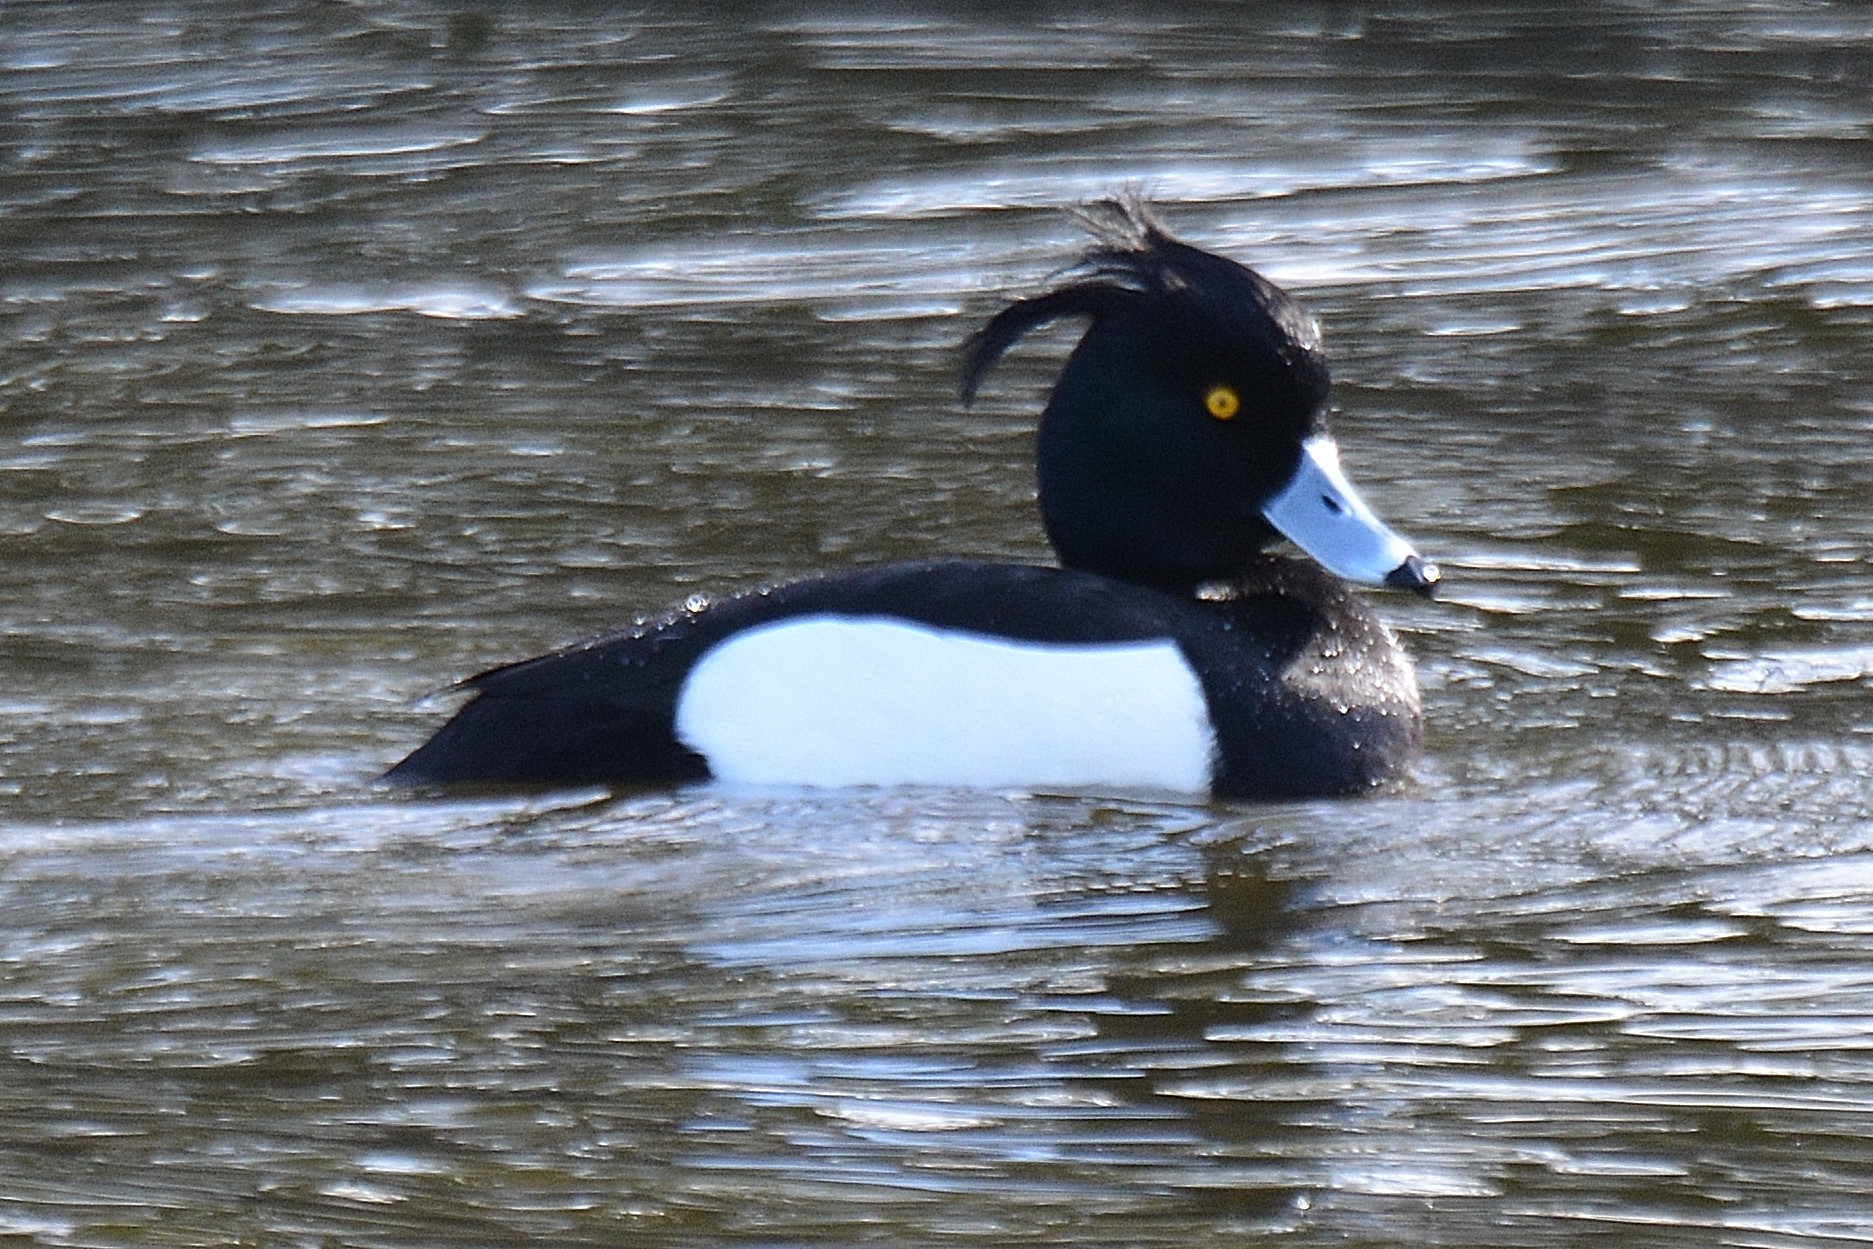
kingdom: Animalia
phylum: Chordata
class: Aves
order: Anseriformes
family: Anatidae
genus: Aythya
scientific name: Aythya fuligula
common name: Tufted duck
